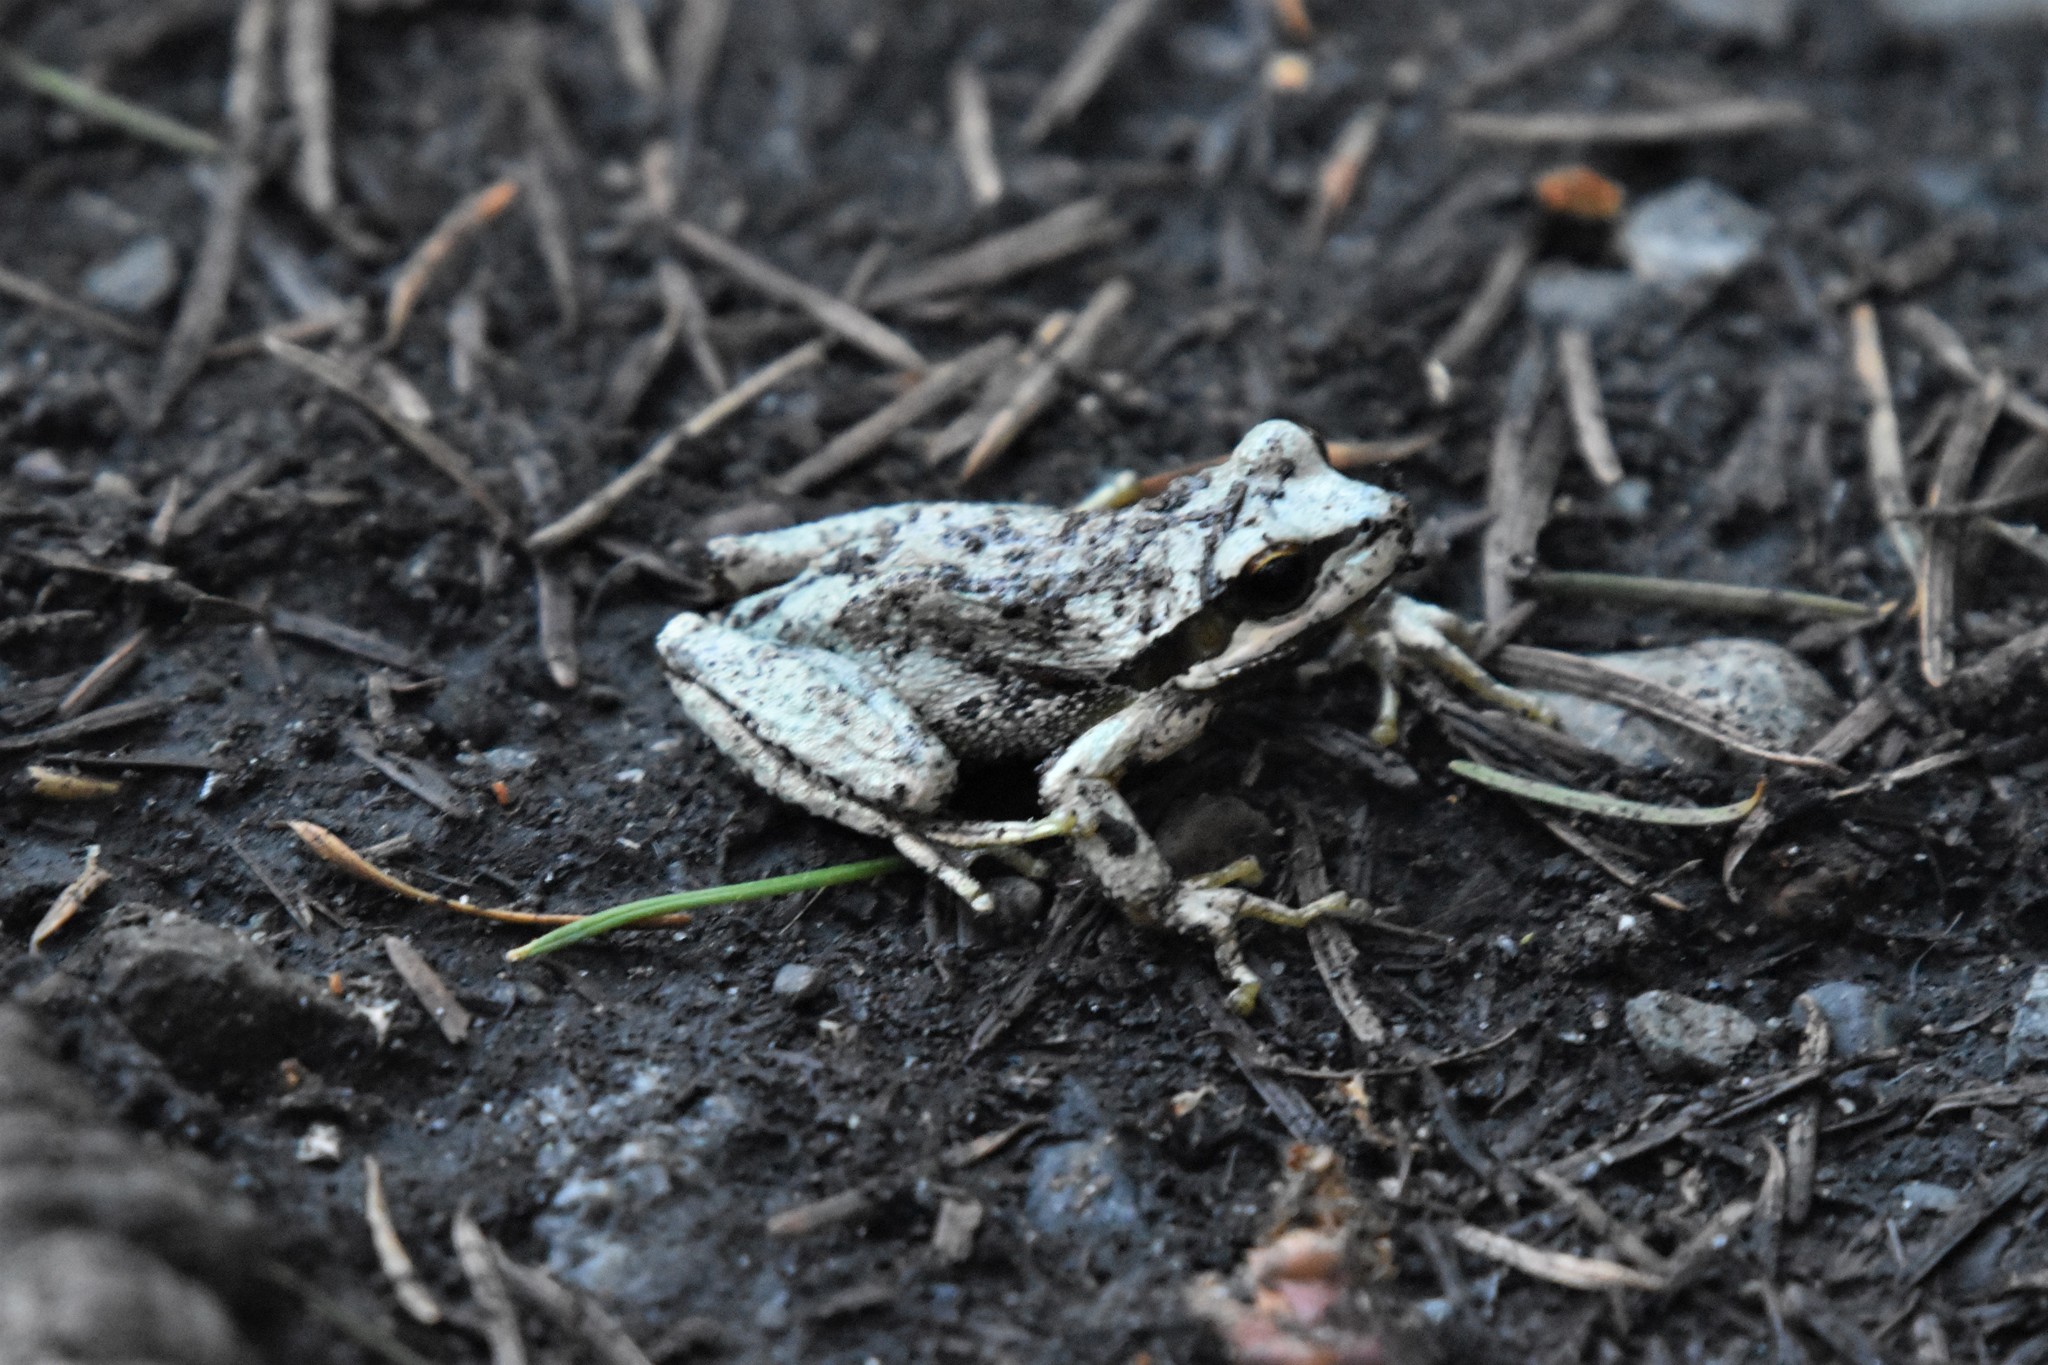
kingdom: Animalia
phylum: Chordata
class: Amphibia
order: Anura
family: Hylidae
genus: Pseudacris
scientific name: Pseudacris regilla
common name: Pacific chorus frog
